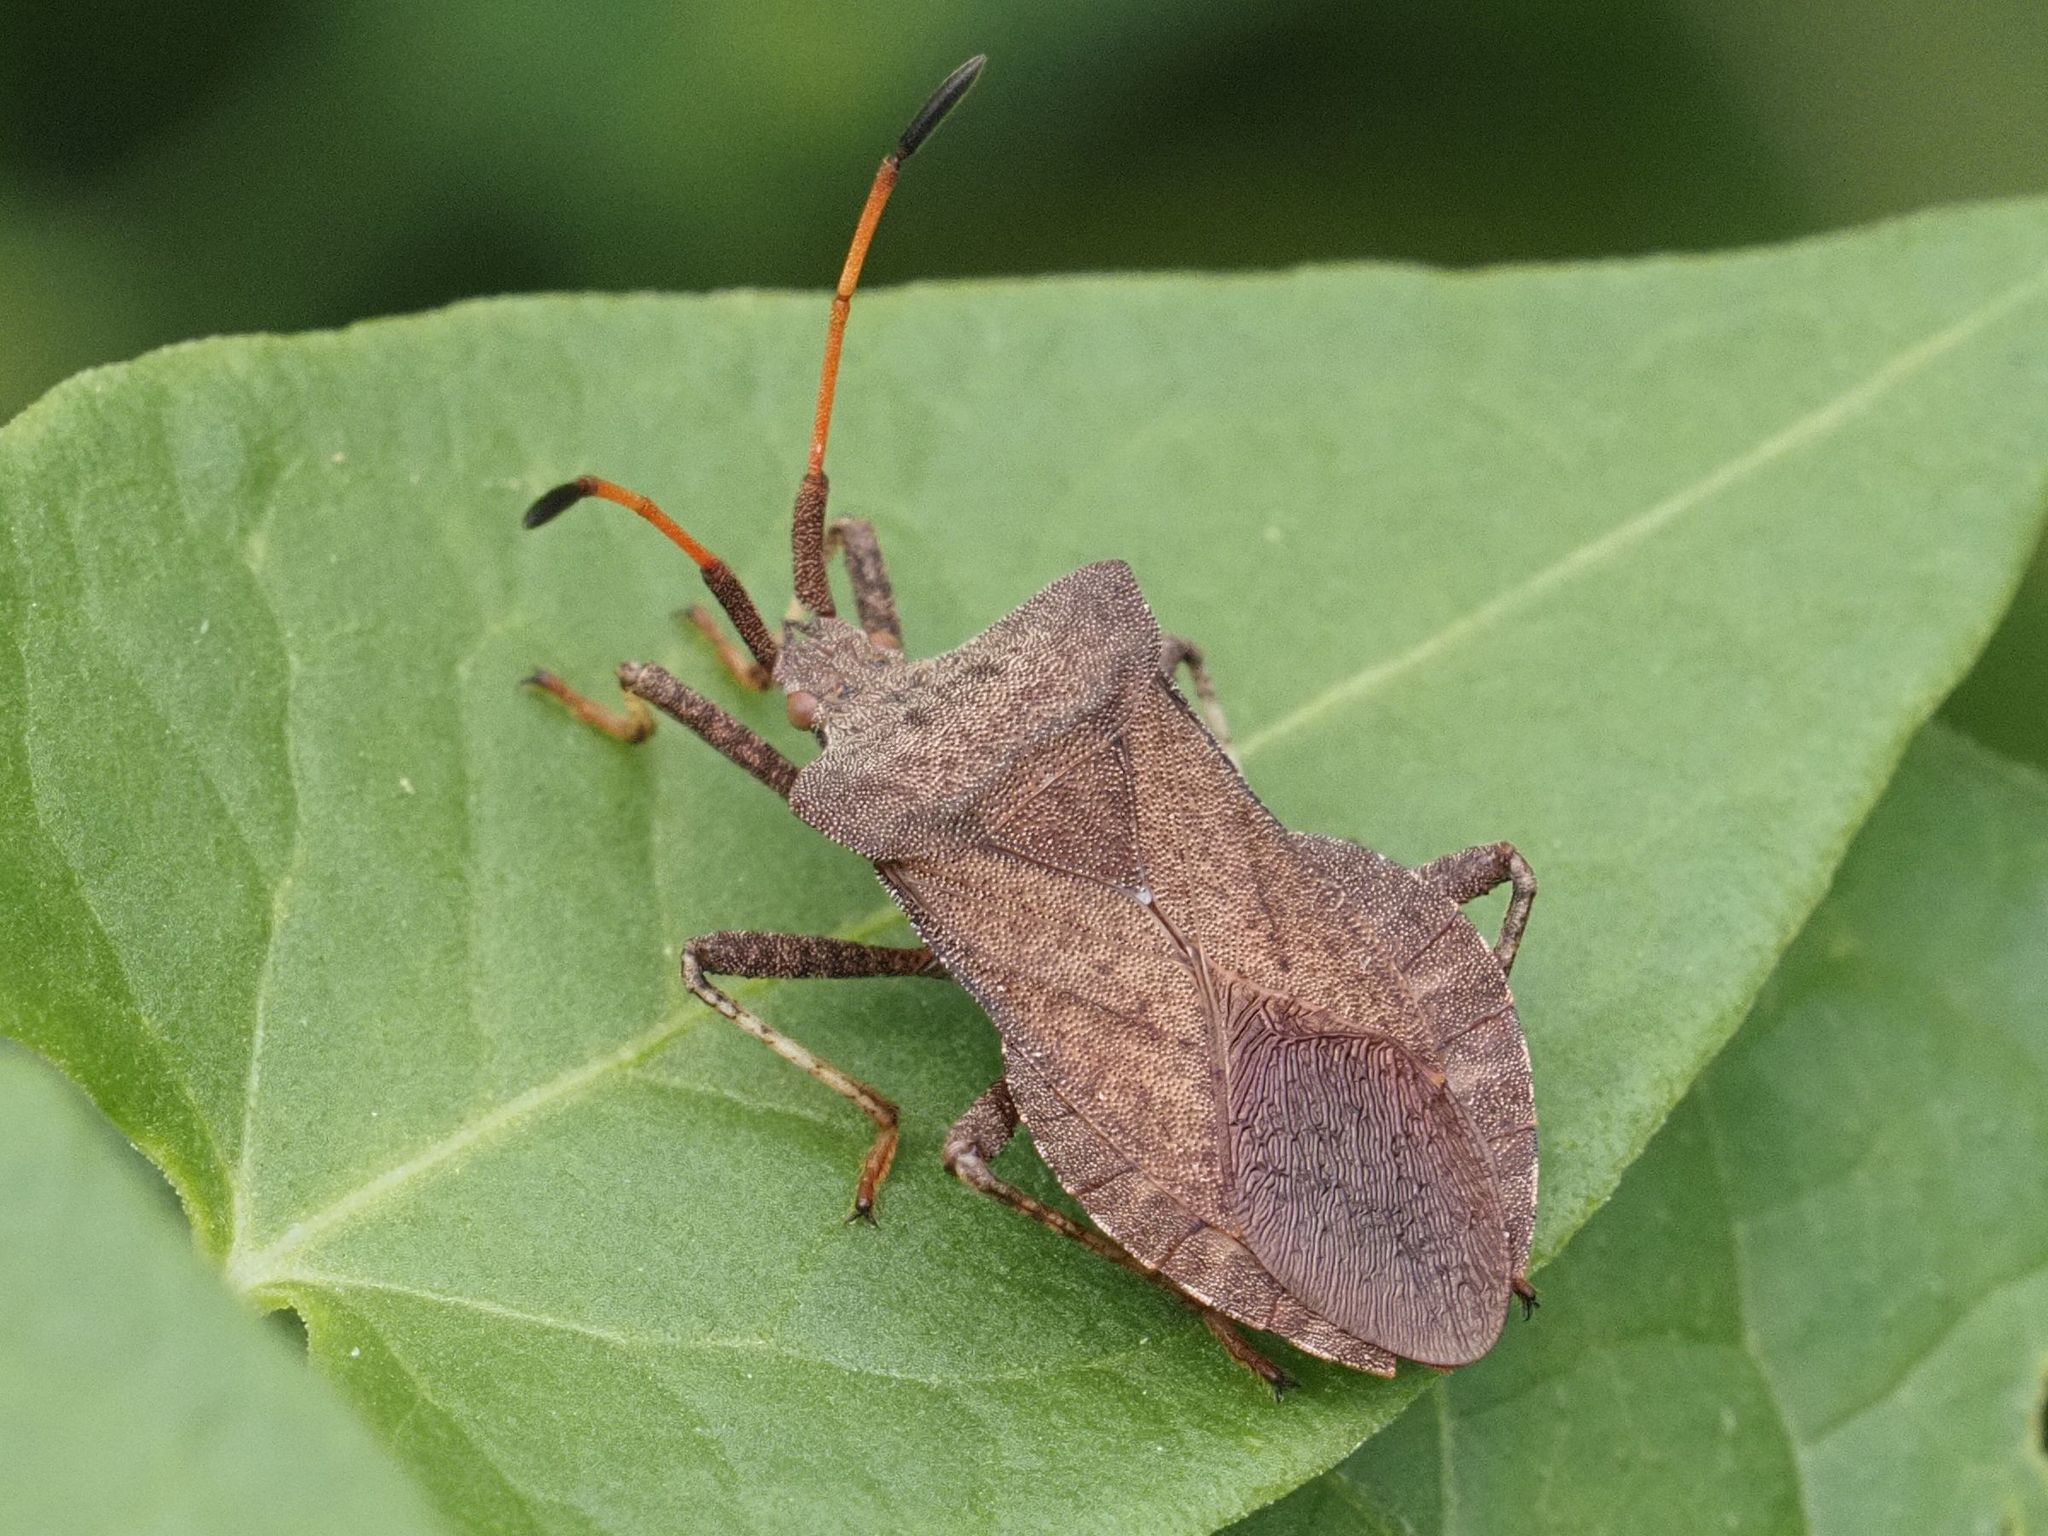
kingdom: Animalia
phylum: Arthropoda
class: Insecta
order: Hemiptera
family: Coreidae
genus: Coreus
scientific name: Coreus marginatus
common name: Dock bug
